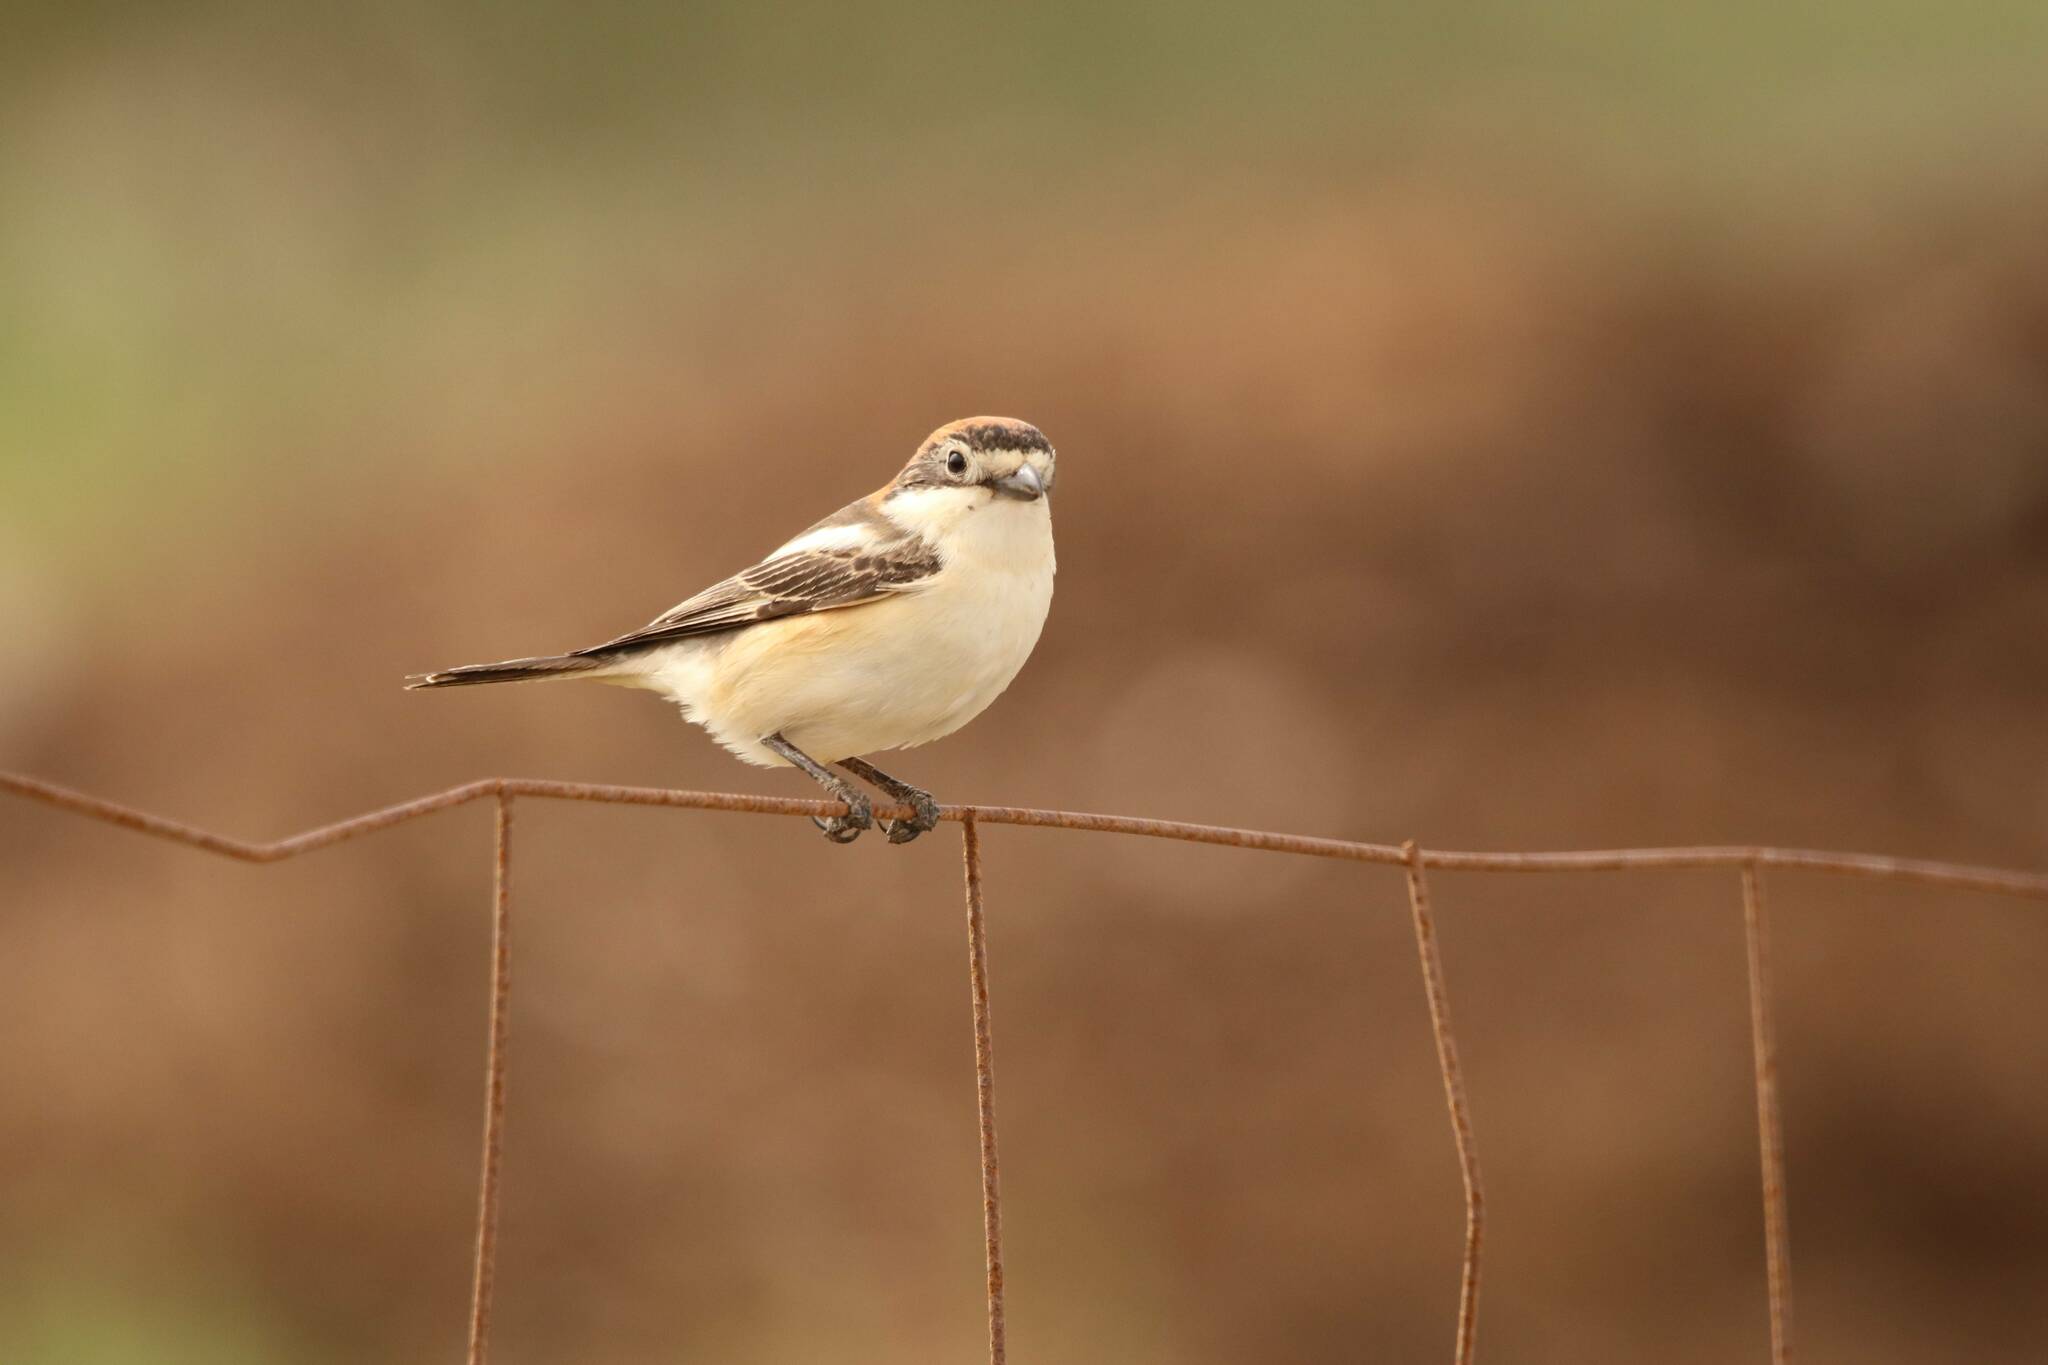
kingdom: Animalia
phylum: Chordata
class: Aves
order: Passeriformes
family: Laniidae
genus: Lanius
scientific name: Lanius senator
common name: Woodchat shrike
